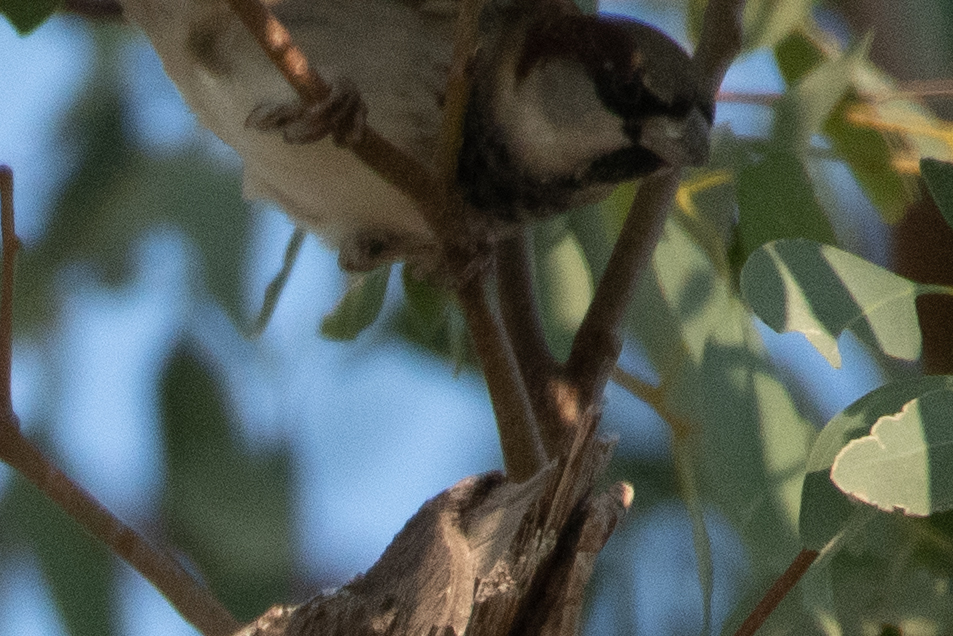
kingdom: Animalia
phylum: Chordata
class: Aves
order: Passeriformes
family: Passeridae
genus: Passer
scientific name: Passer domesticus
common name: House sparrow
